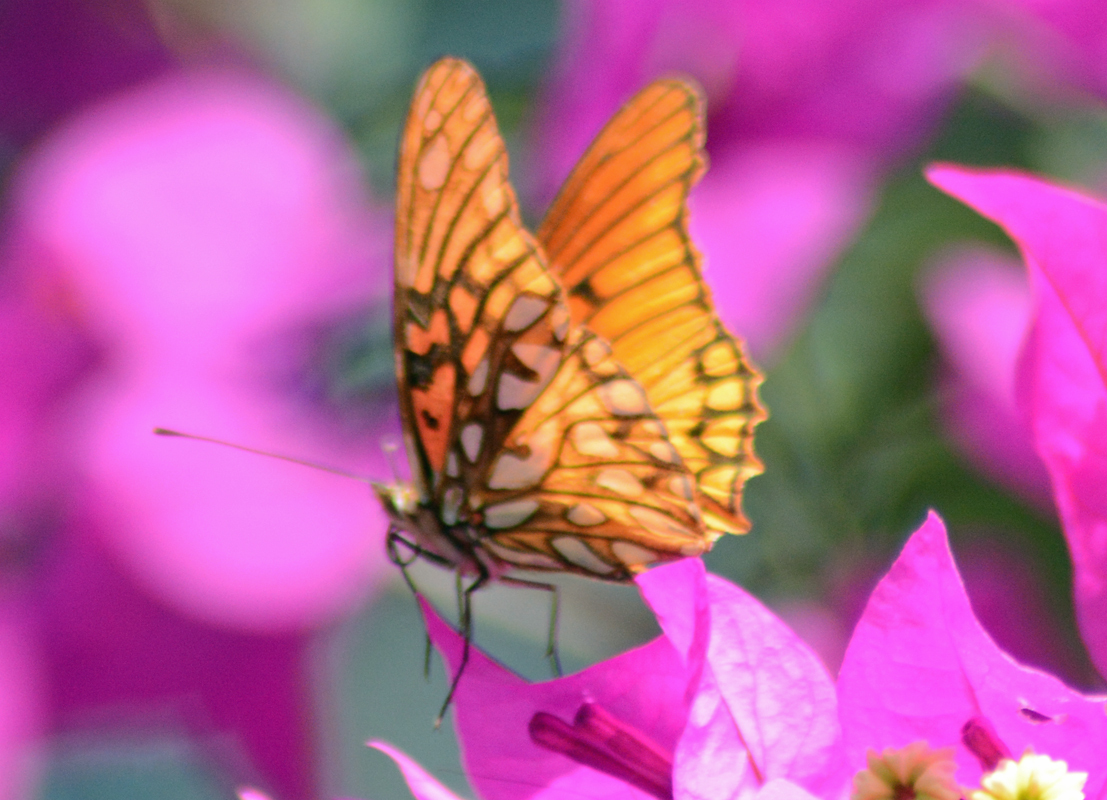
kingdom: Animalia
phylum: Arthropoda
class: Insecta
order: Lepidoptera
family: Nymphalidae
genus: Dione
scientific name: Dione moneta
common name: Mexican silverspot
